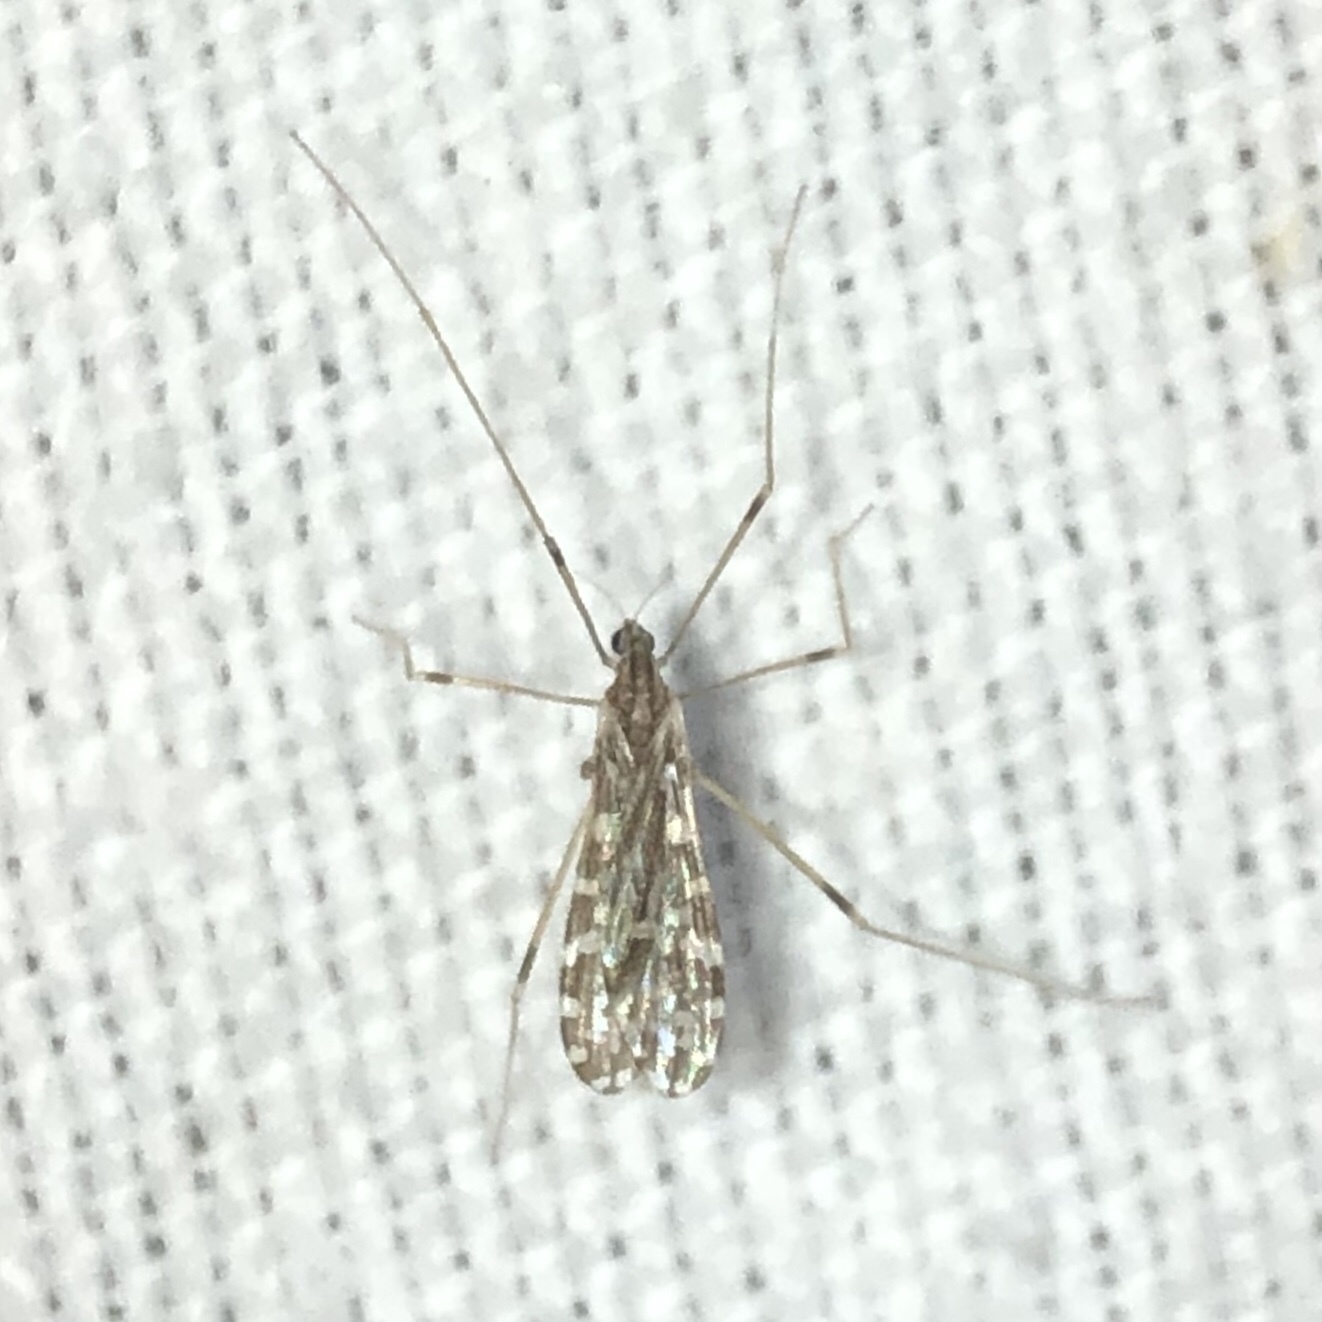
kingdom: Animalia
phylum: Arthropoda
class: Insecta
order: Diptera
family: Limoniidae
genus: Erioptera
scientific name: Erioptera needhami
